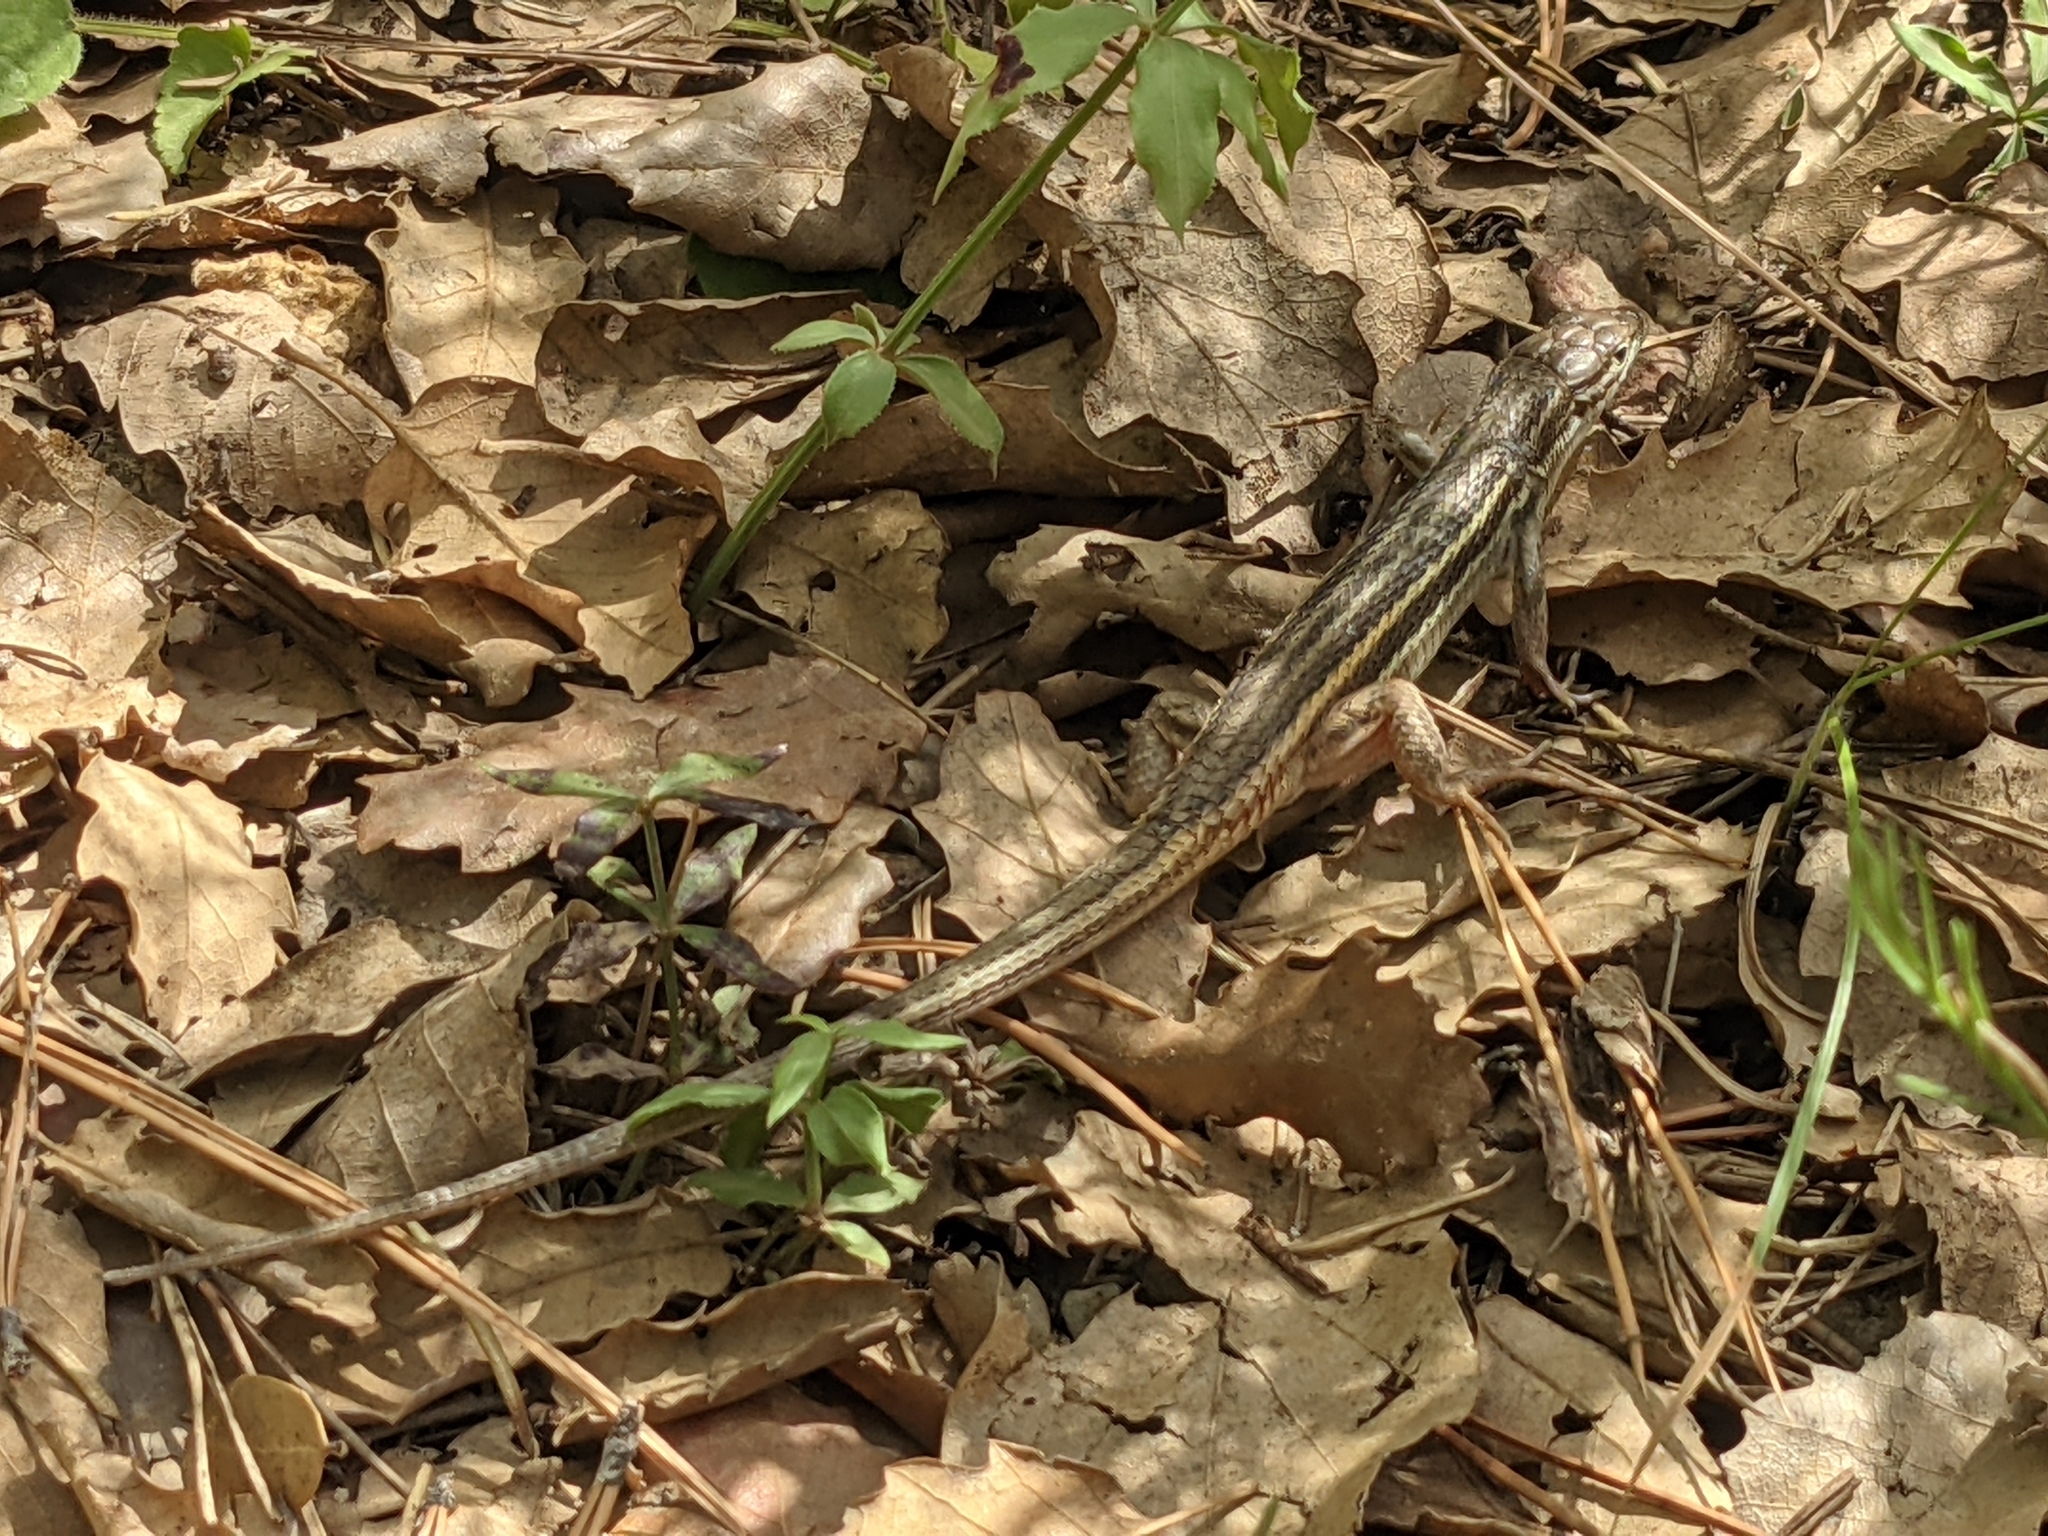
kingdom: Animalia
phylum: Chordata
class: Squamata
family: Lacertidae
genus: Psammodromus
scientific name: Psammodromus algirus
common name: Algerian psammodromus
